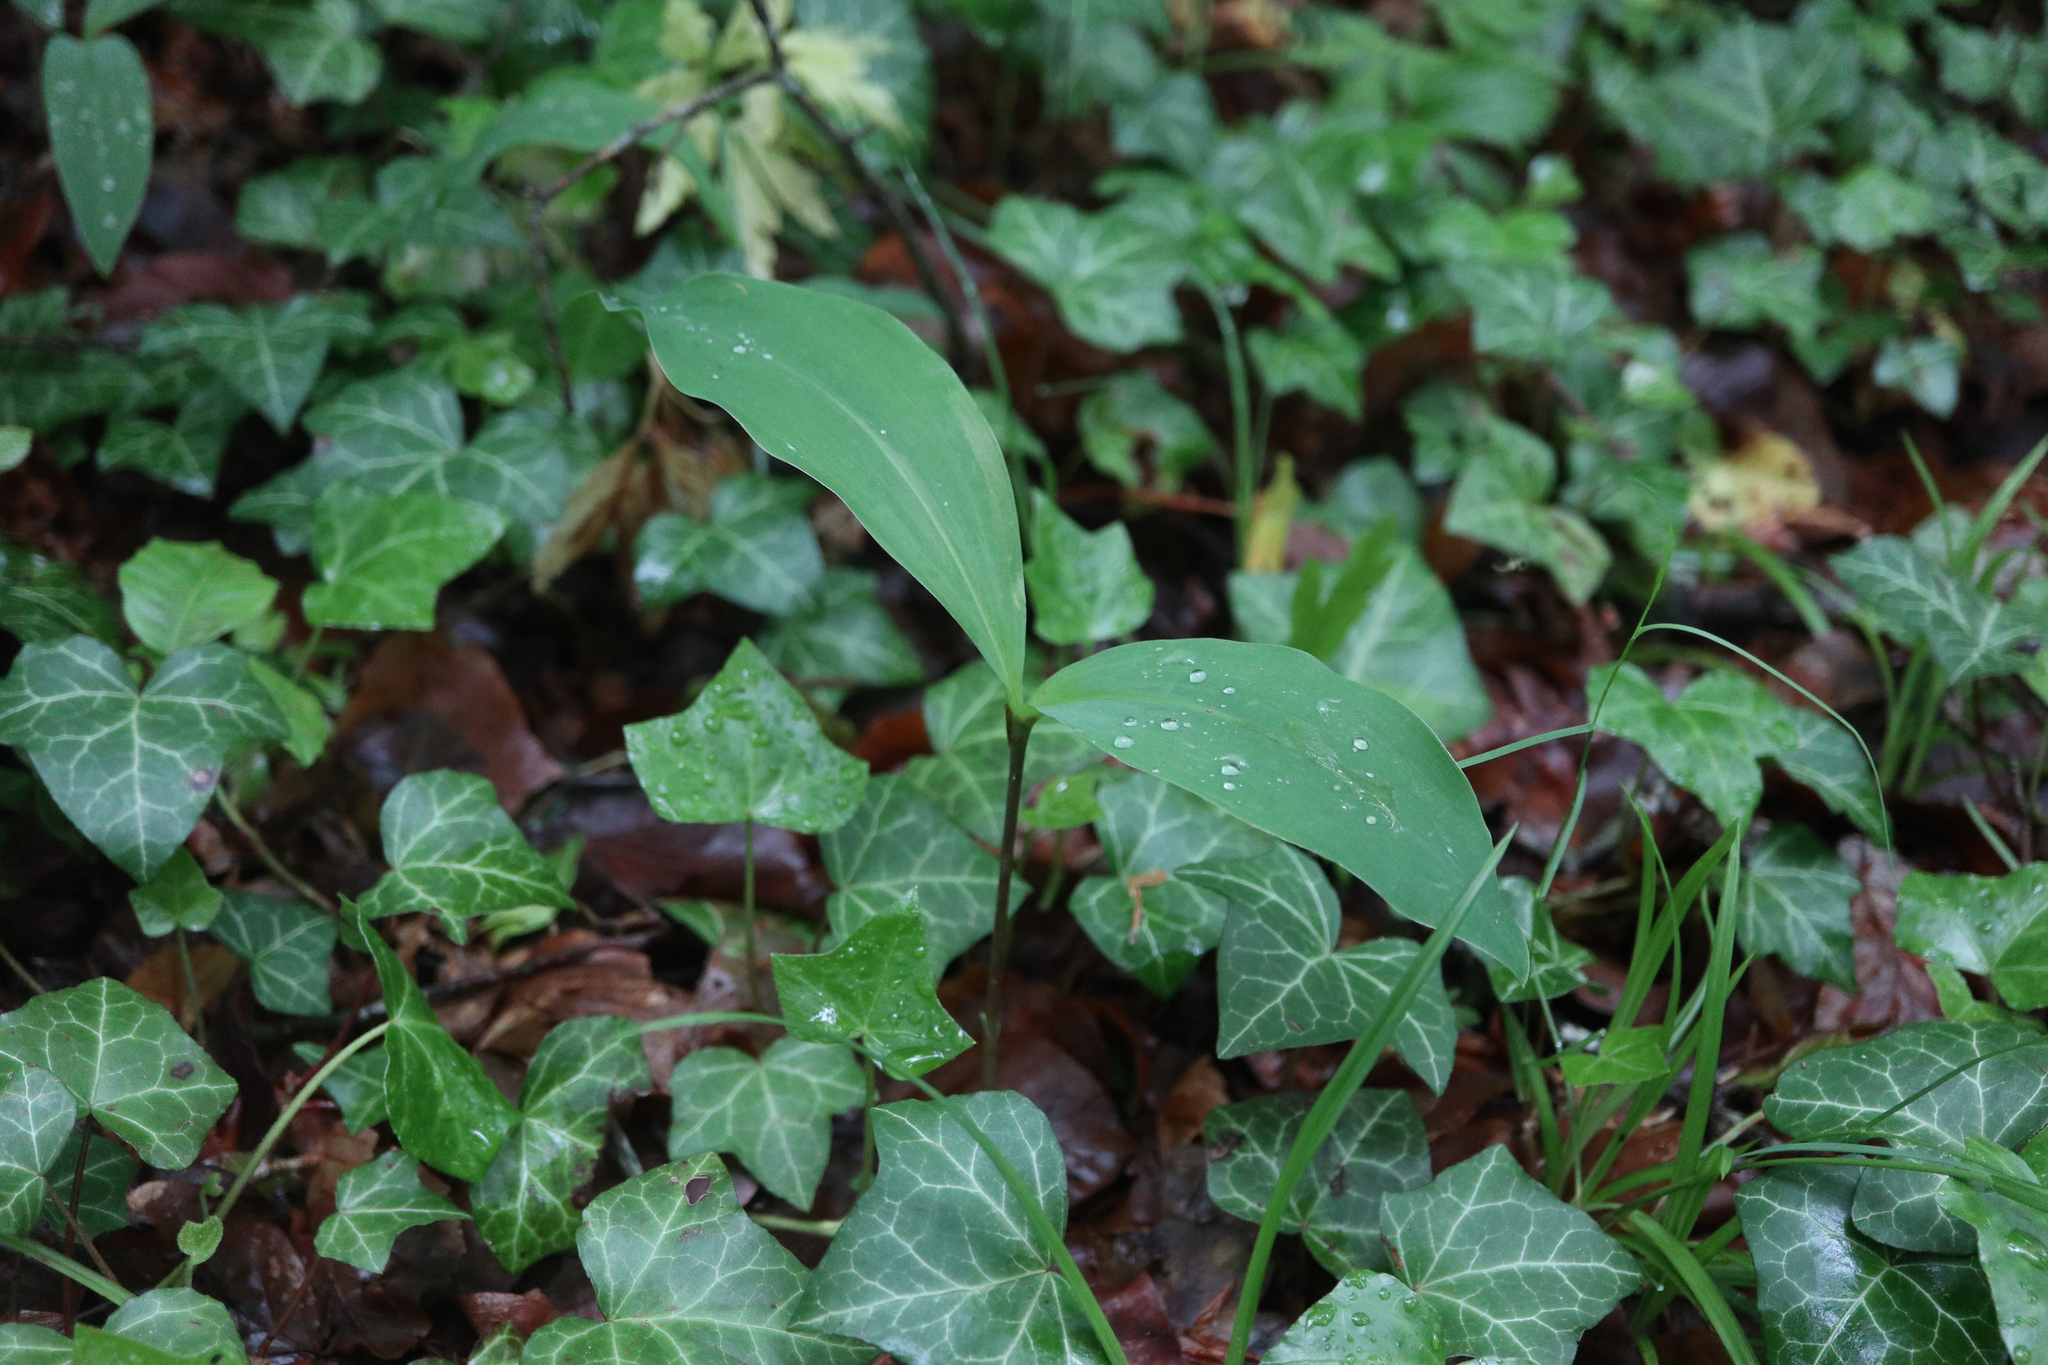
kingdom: Plantae
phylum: Tracheophyta
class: Liliopsida
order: Asparagales
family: Asparagaceae
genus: Convallaria
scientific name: Convallaria majalis
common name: Lily-of-the-valley
